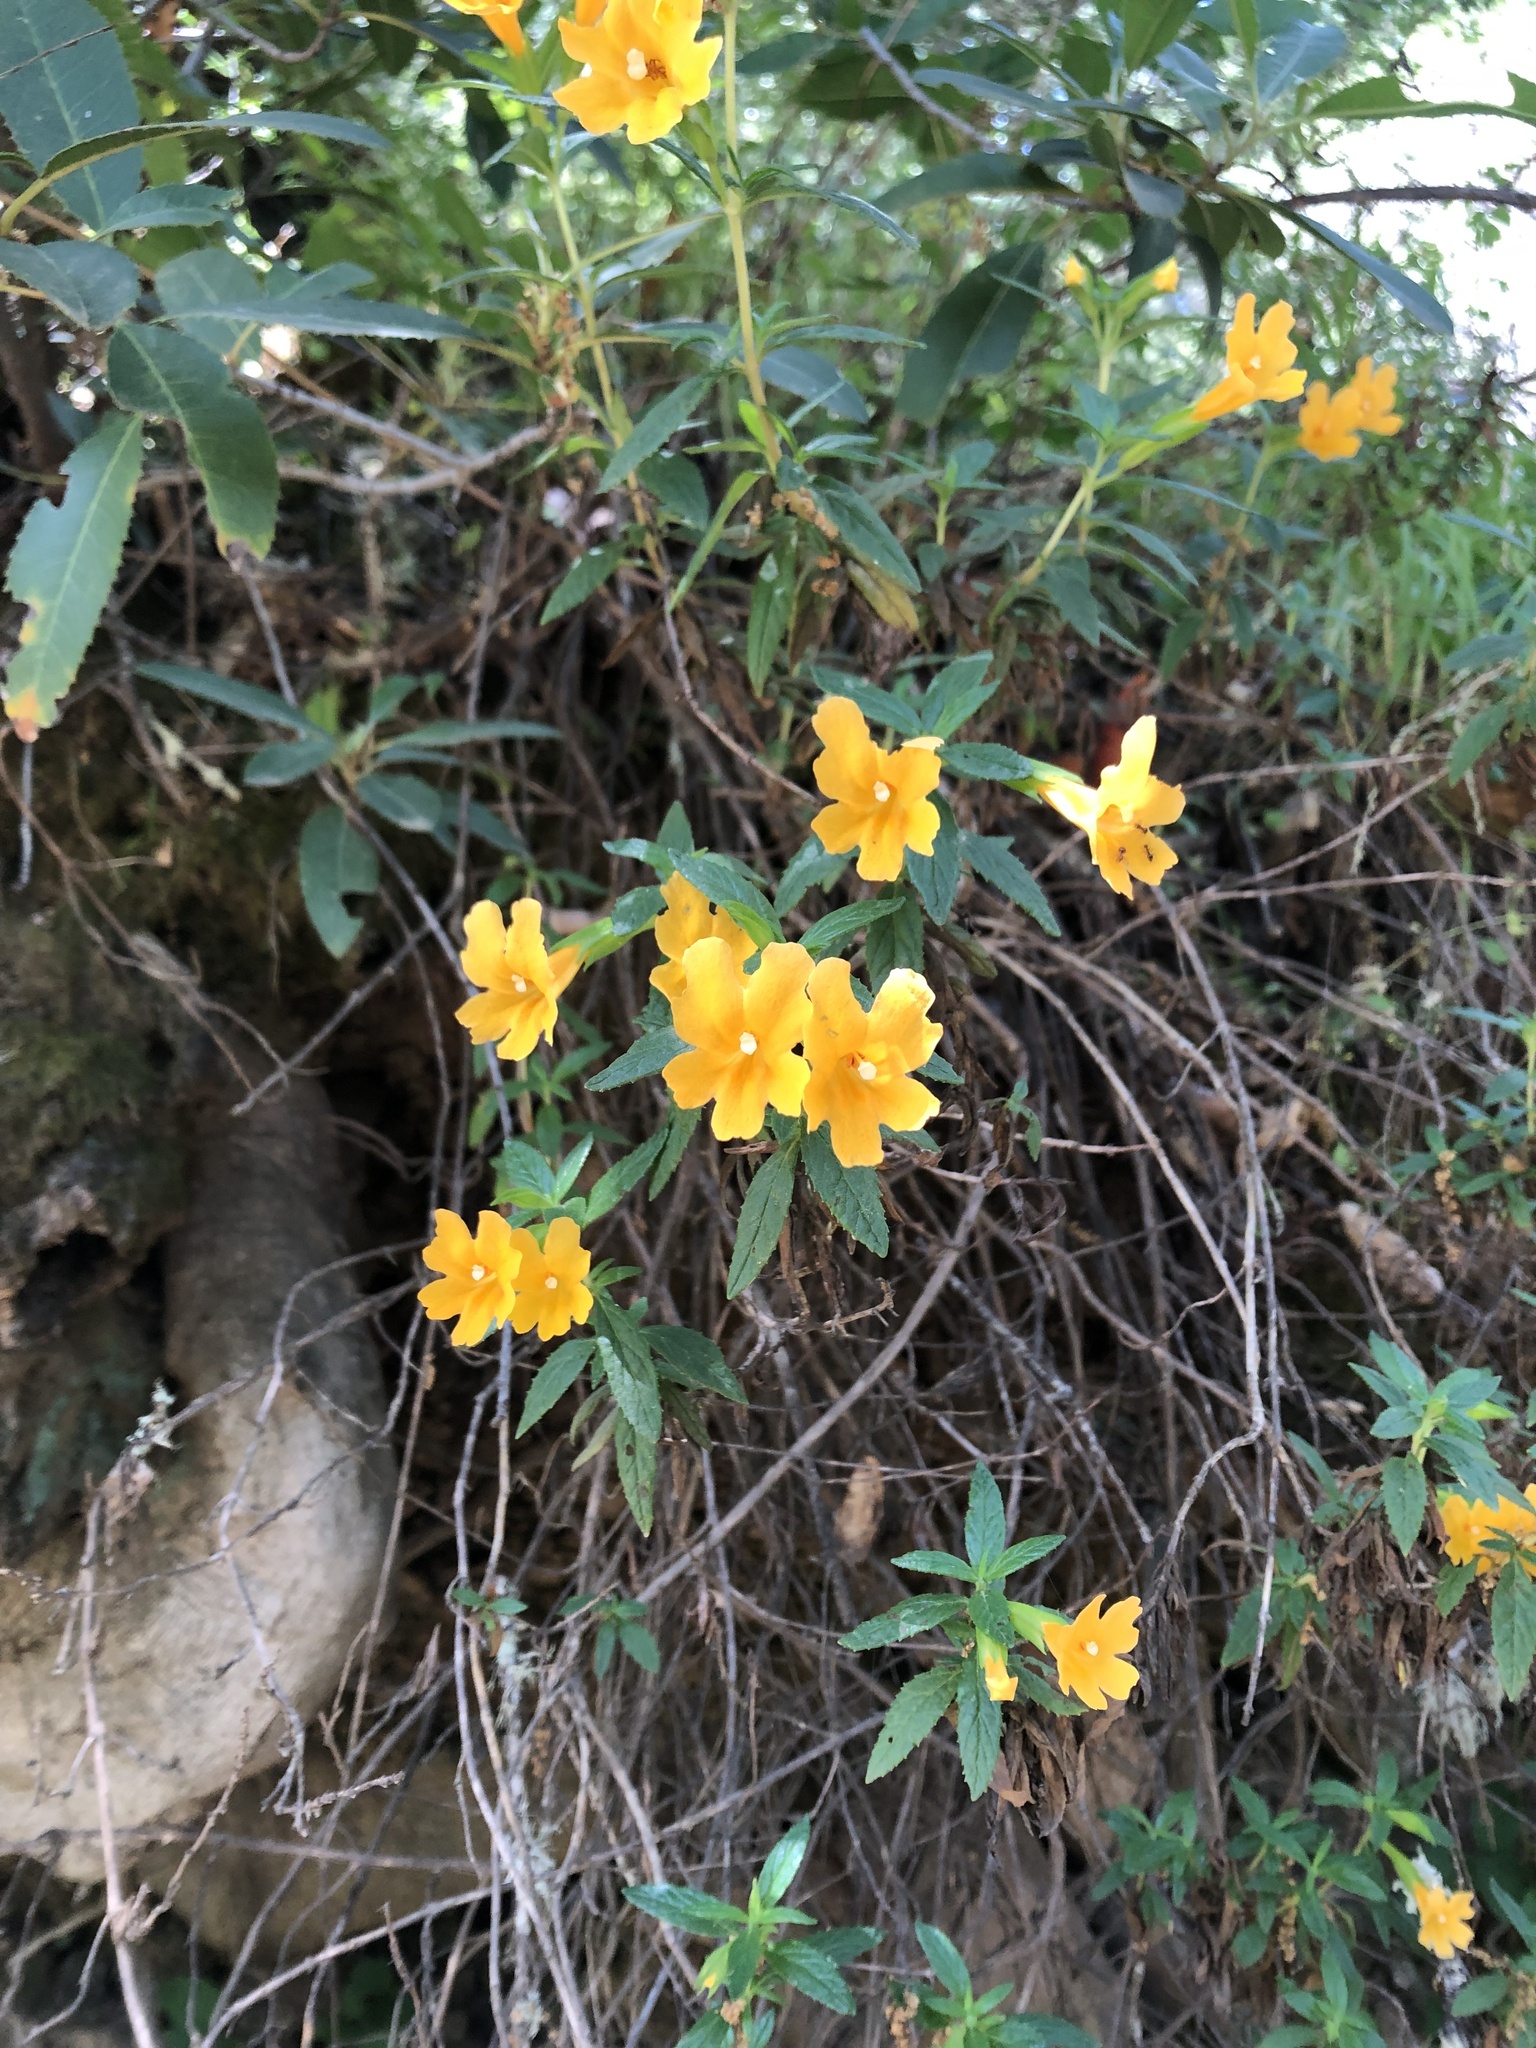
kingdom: Plantae
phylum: Tracheophyta
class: Magnoliopsida
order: Lamiales
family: Phrymaceae
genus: Diplacus
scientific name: Diplacus aurantiacus
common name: Bush monkey-flower
